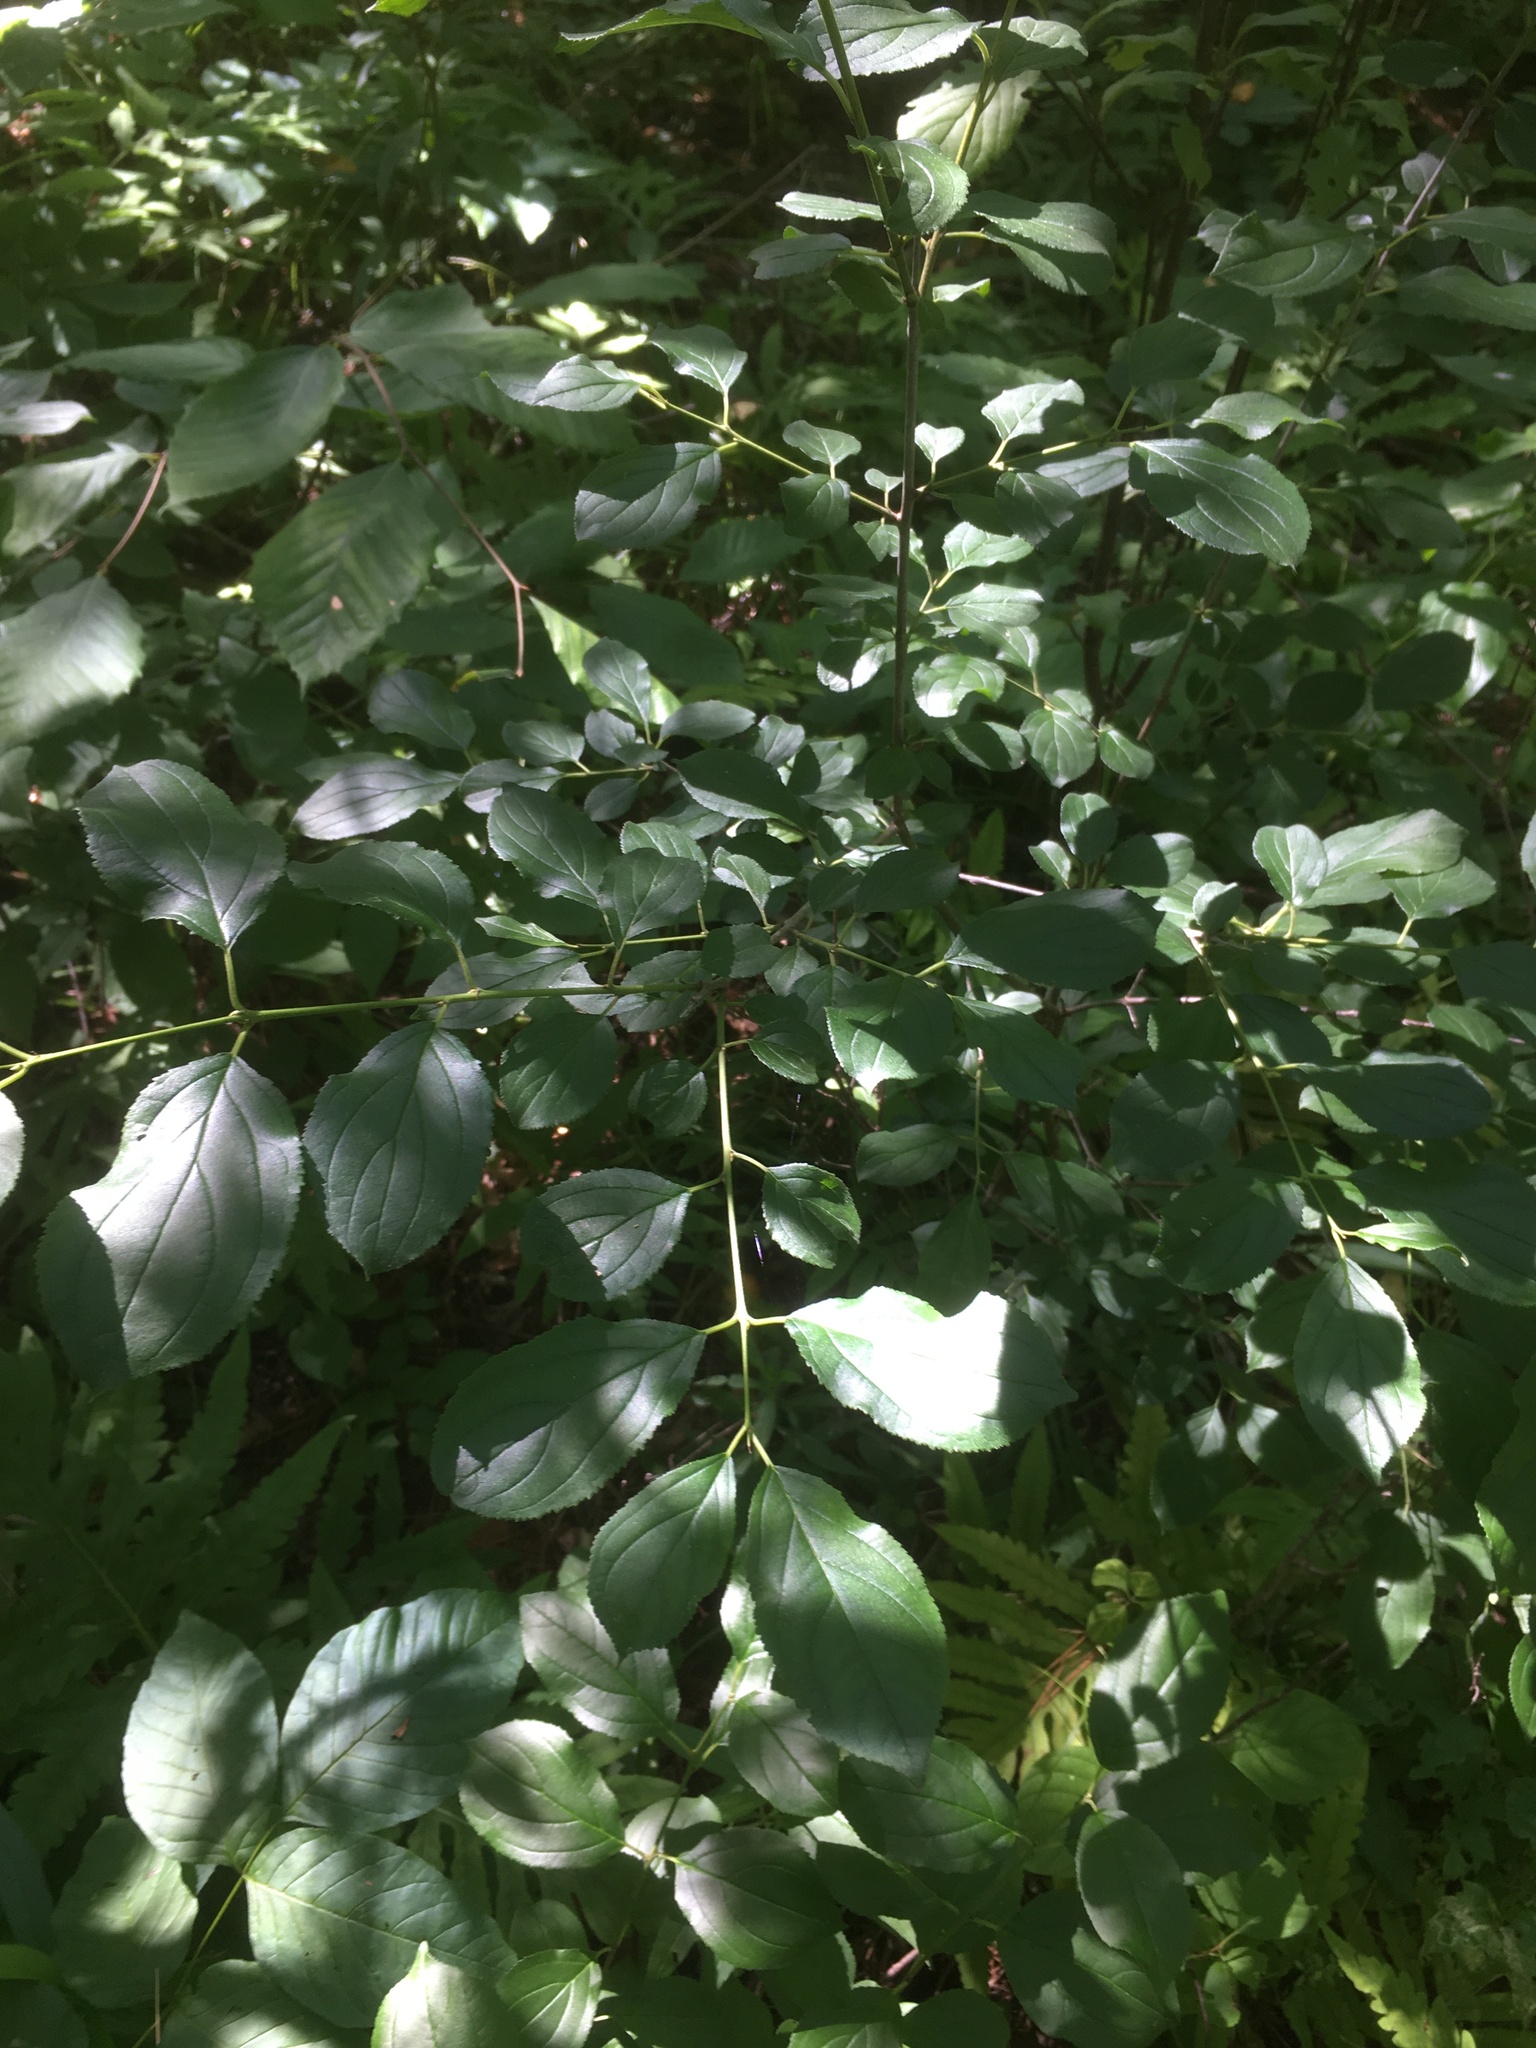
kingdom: Plantae
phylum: Tracheophyta
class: Magnoliopsida
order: Rosales
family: Rhamnaceae
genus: Rhamnus
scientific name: Rhamnus cathartica
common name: Common buckthorn
